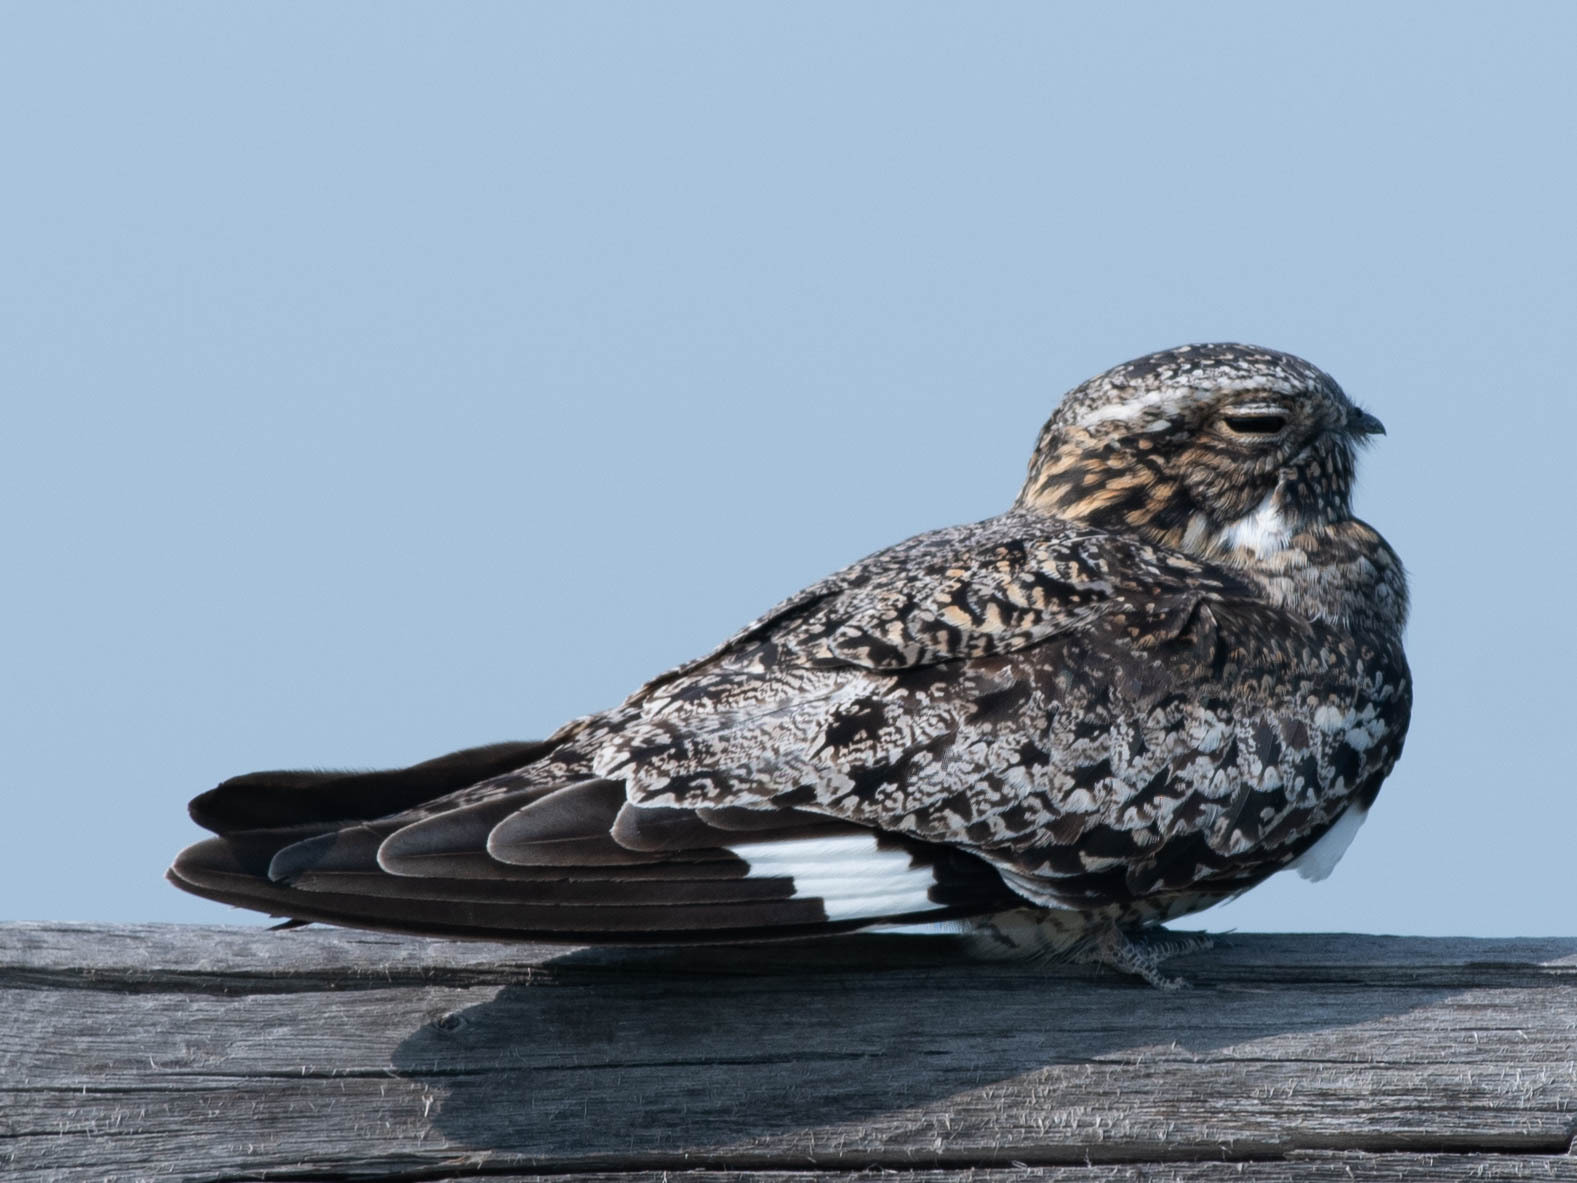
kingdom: Animalia
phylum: Chordata
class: Aves
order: Caprimulgiformes
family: Caprimulgidae
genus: Chordeiles
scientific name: Chordeiles minor
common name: Common nighthawk
